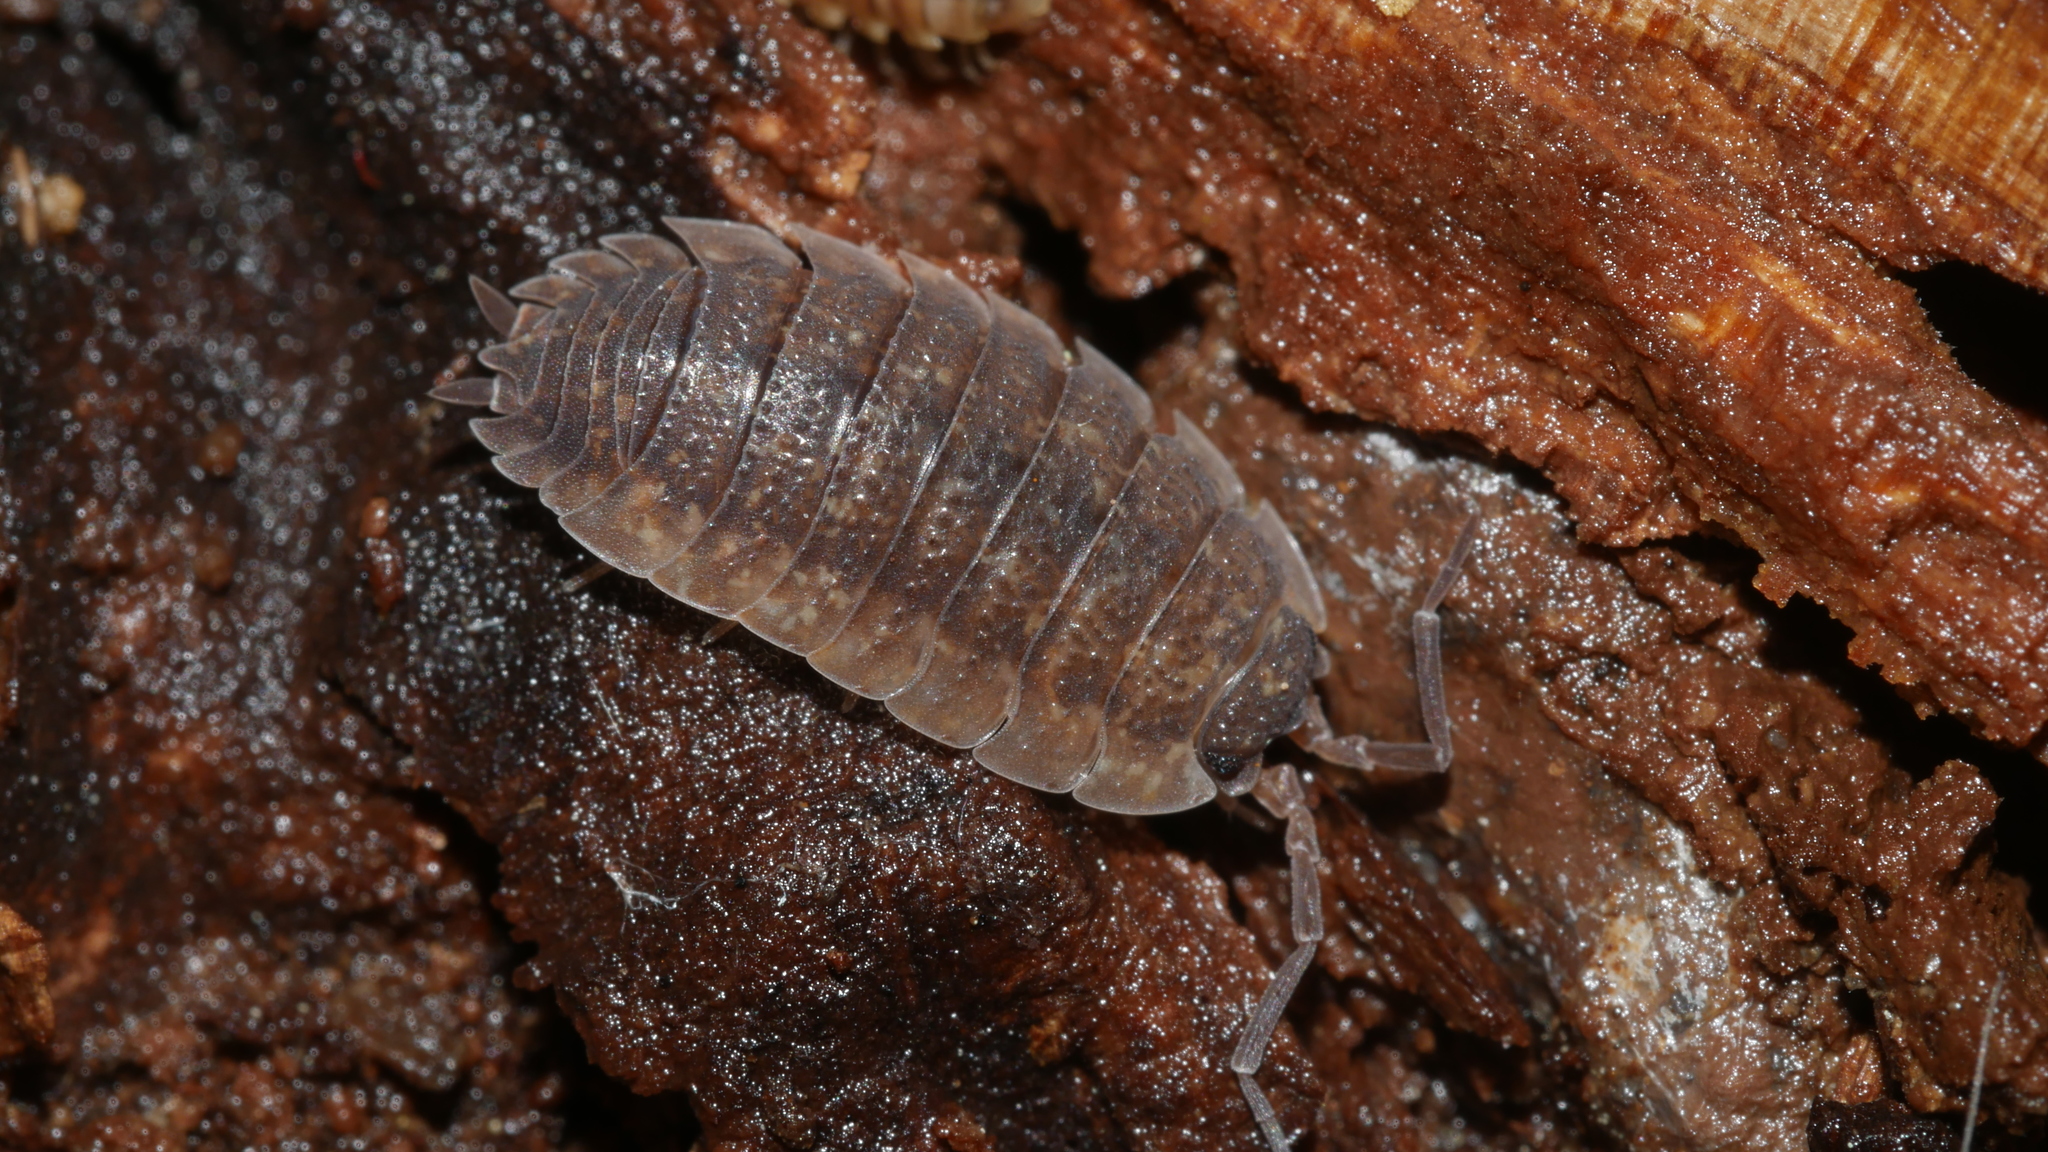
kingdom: Animalia
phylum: Arthropoda
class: Malacostraca
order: Isopoda
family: Porcellionidae
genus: Porcellio
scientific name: Porcellio scaber
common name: Common rough woodlouse
